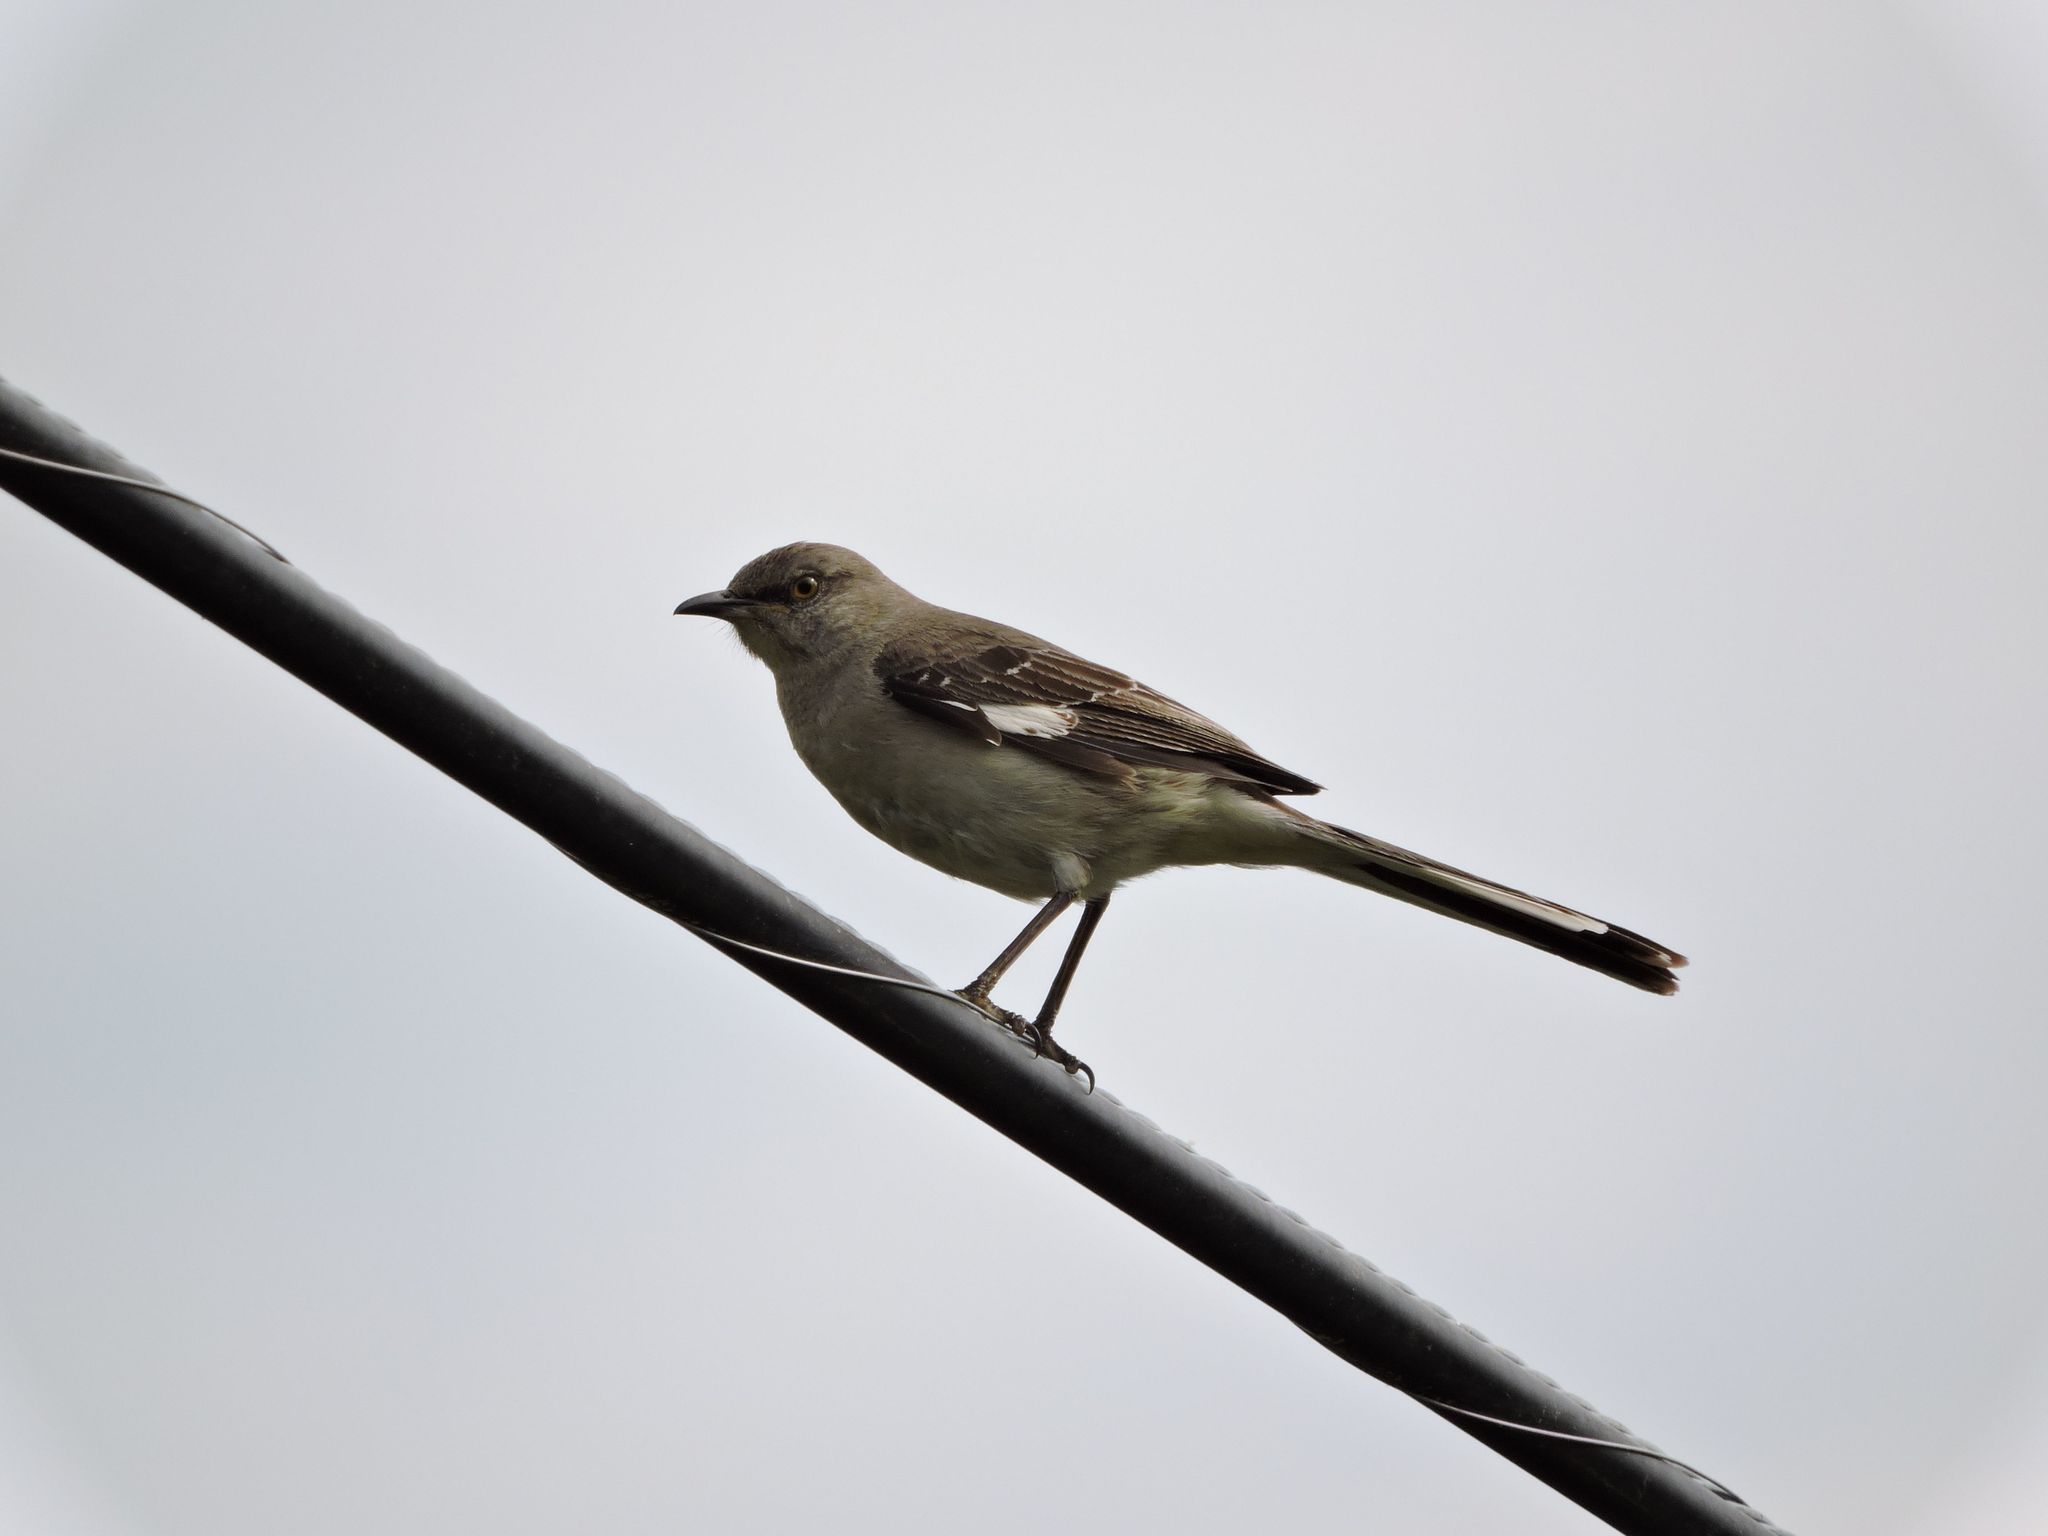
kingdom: Animalia
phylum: Chordata
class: Aves
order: Passeriformes
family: Mimidae
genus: Mimus
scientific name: Mimus polyglottos
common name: Northern mockingbird
